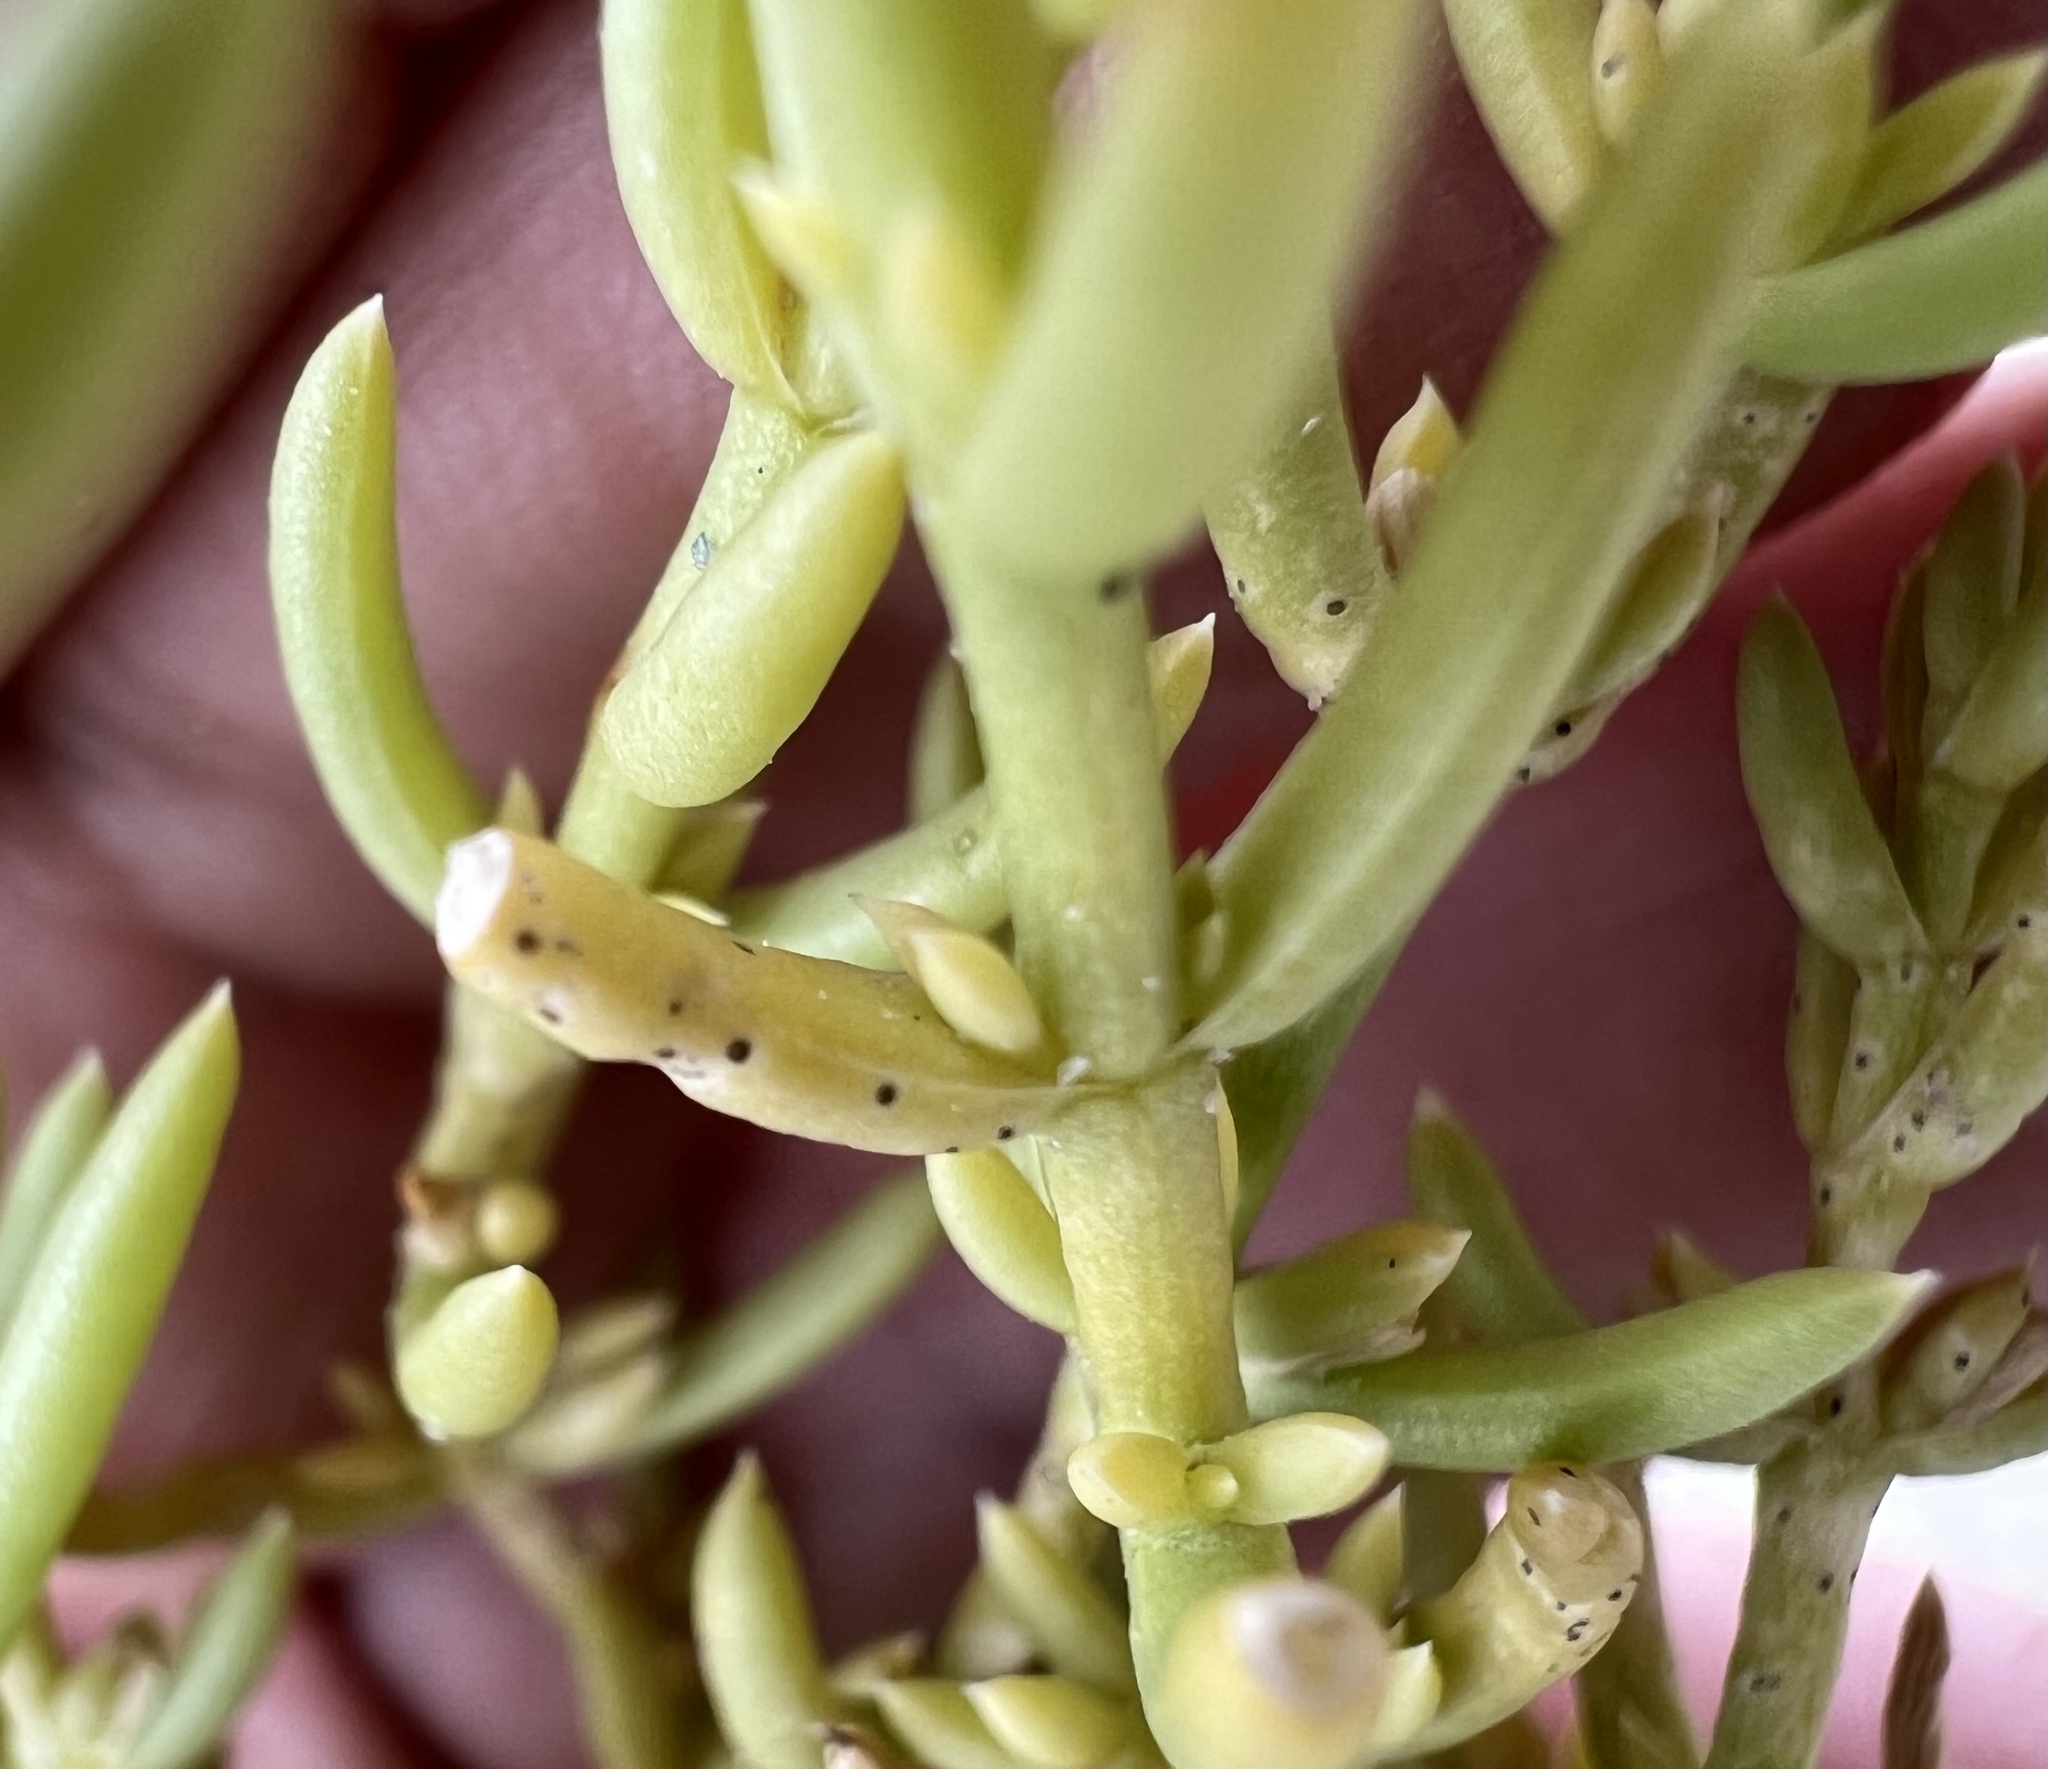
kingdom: Plantae
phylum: Tracheophyta
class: Magnoliopsida
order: Caryophyllales
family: Amaranthaceae
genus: Nitrophila
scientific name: Nitrophila occidentalis
